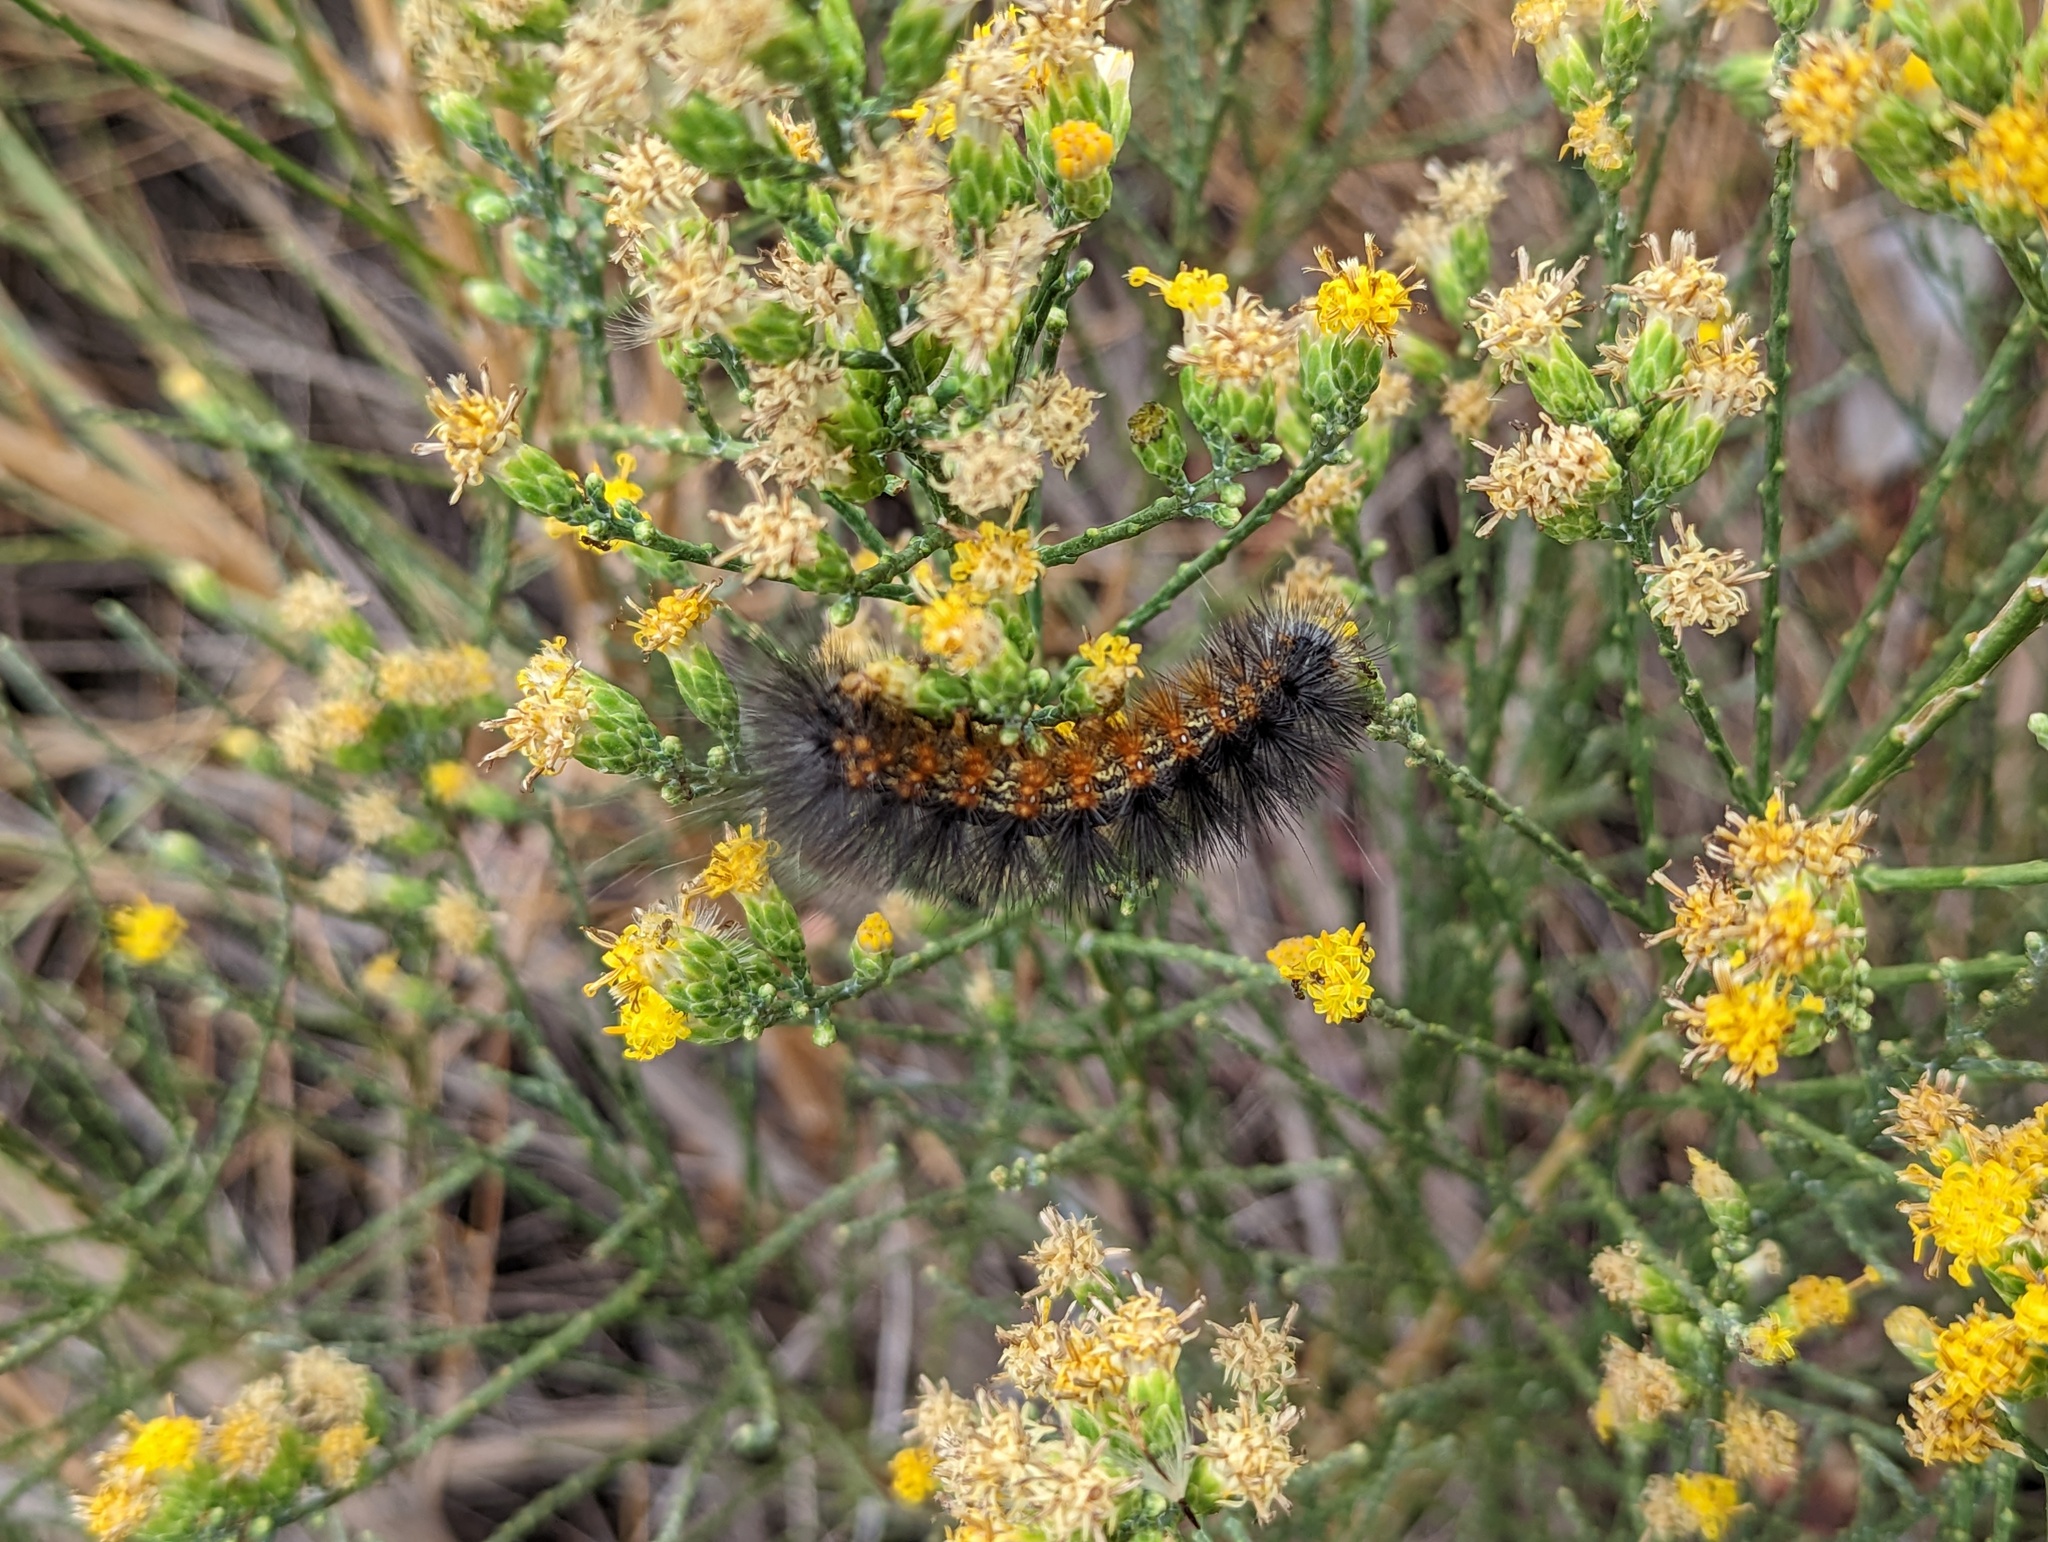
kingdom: Animalia
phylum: Arthropoda
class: Insecta
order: Lepidoptera
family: Erebidae
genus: Estigmene
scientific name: Estigmene acrea
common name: Salt marsh moth
